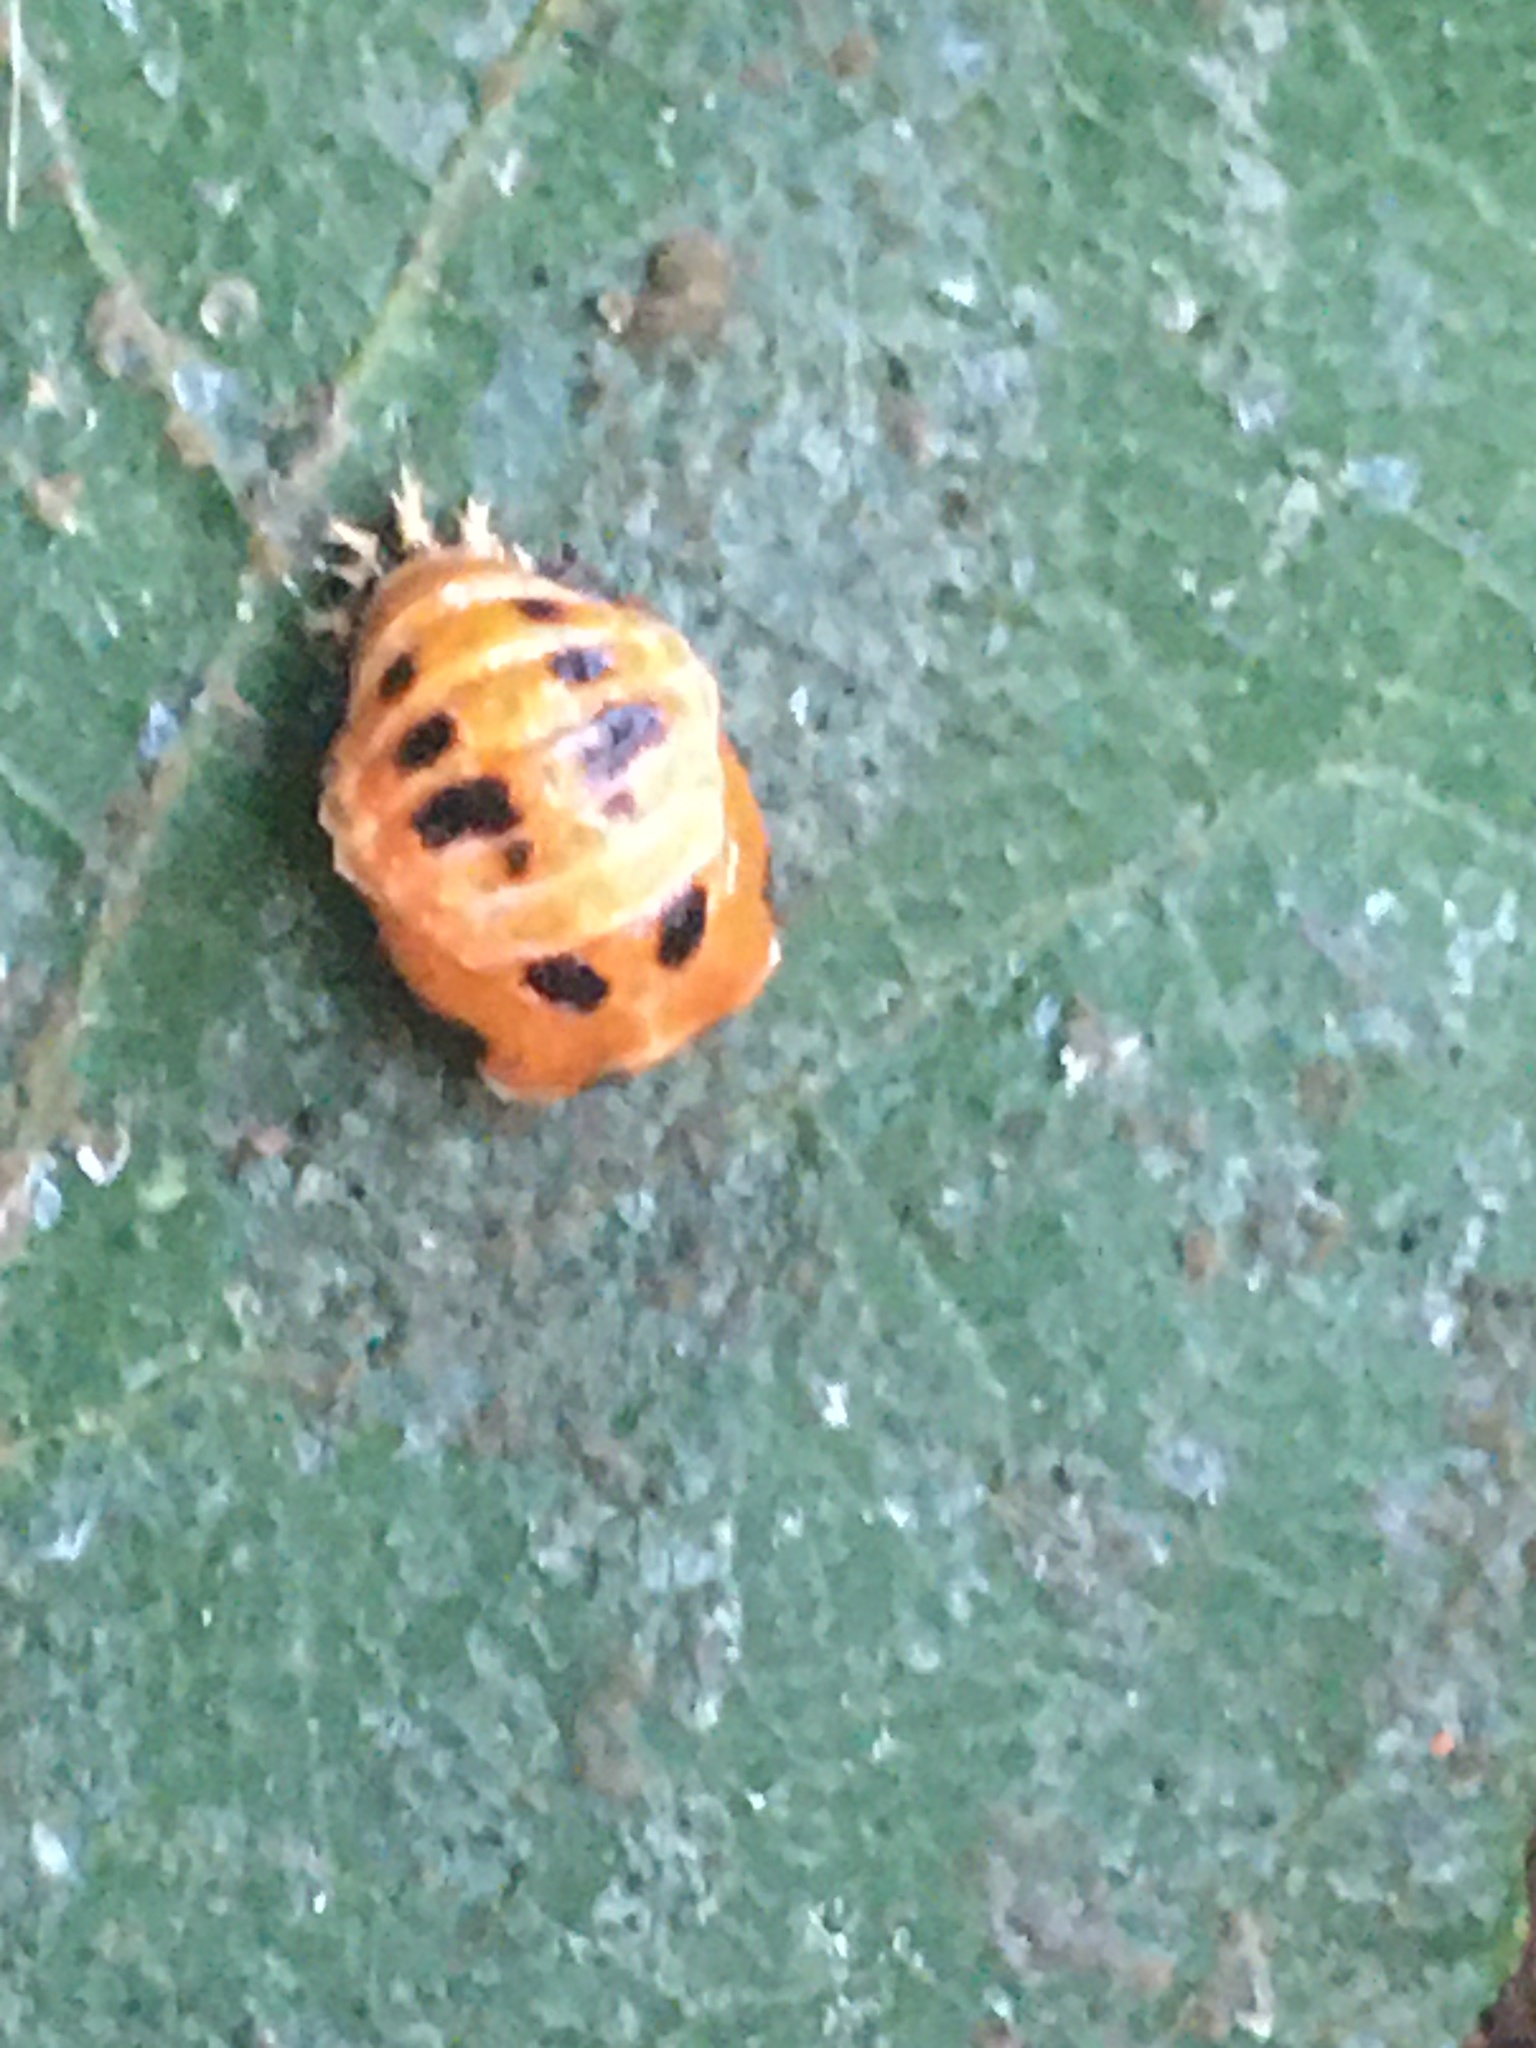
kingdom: Animalia
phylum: Arthropoda
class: Insecta
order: Coleoptera
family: Coccinellidae
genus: Harmonia
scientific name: Harmonia axyridis
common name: Harlequin ladybird
